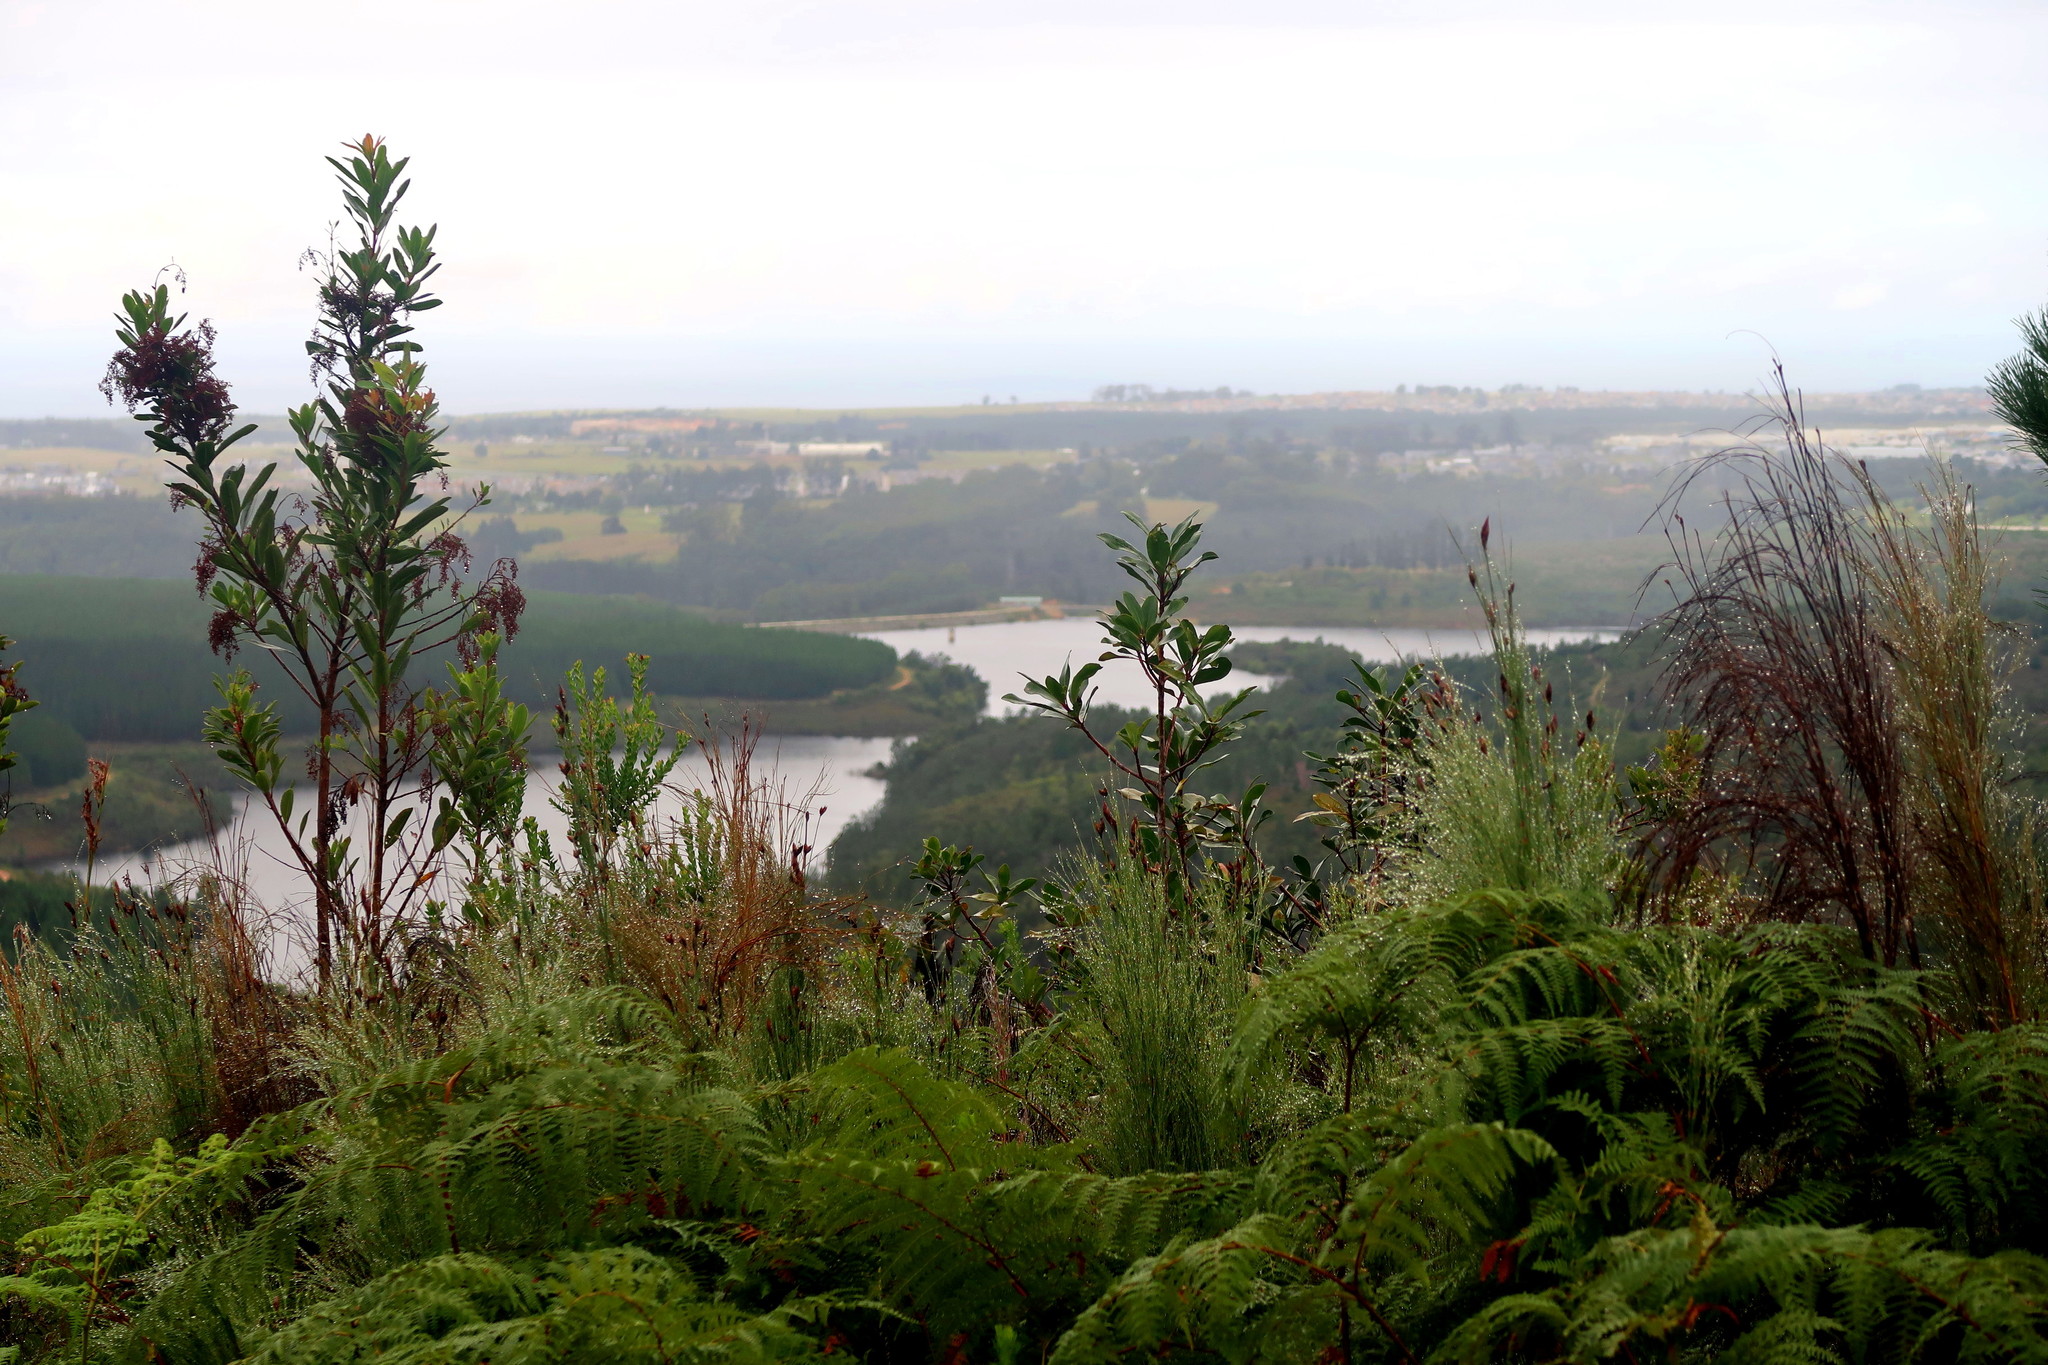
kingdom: Plantae
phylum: Tracheophyta
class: Magnoliopsida
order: Sapindales
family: Anacardiaceae
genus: Laurophyllus
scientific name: Laurophyllus capensis
